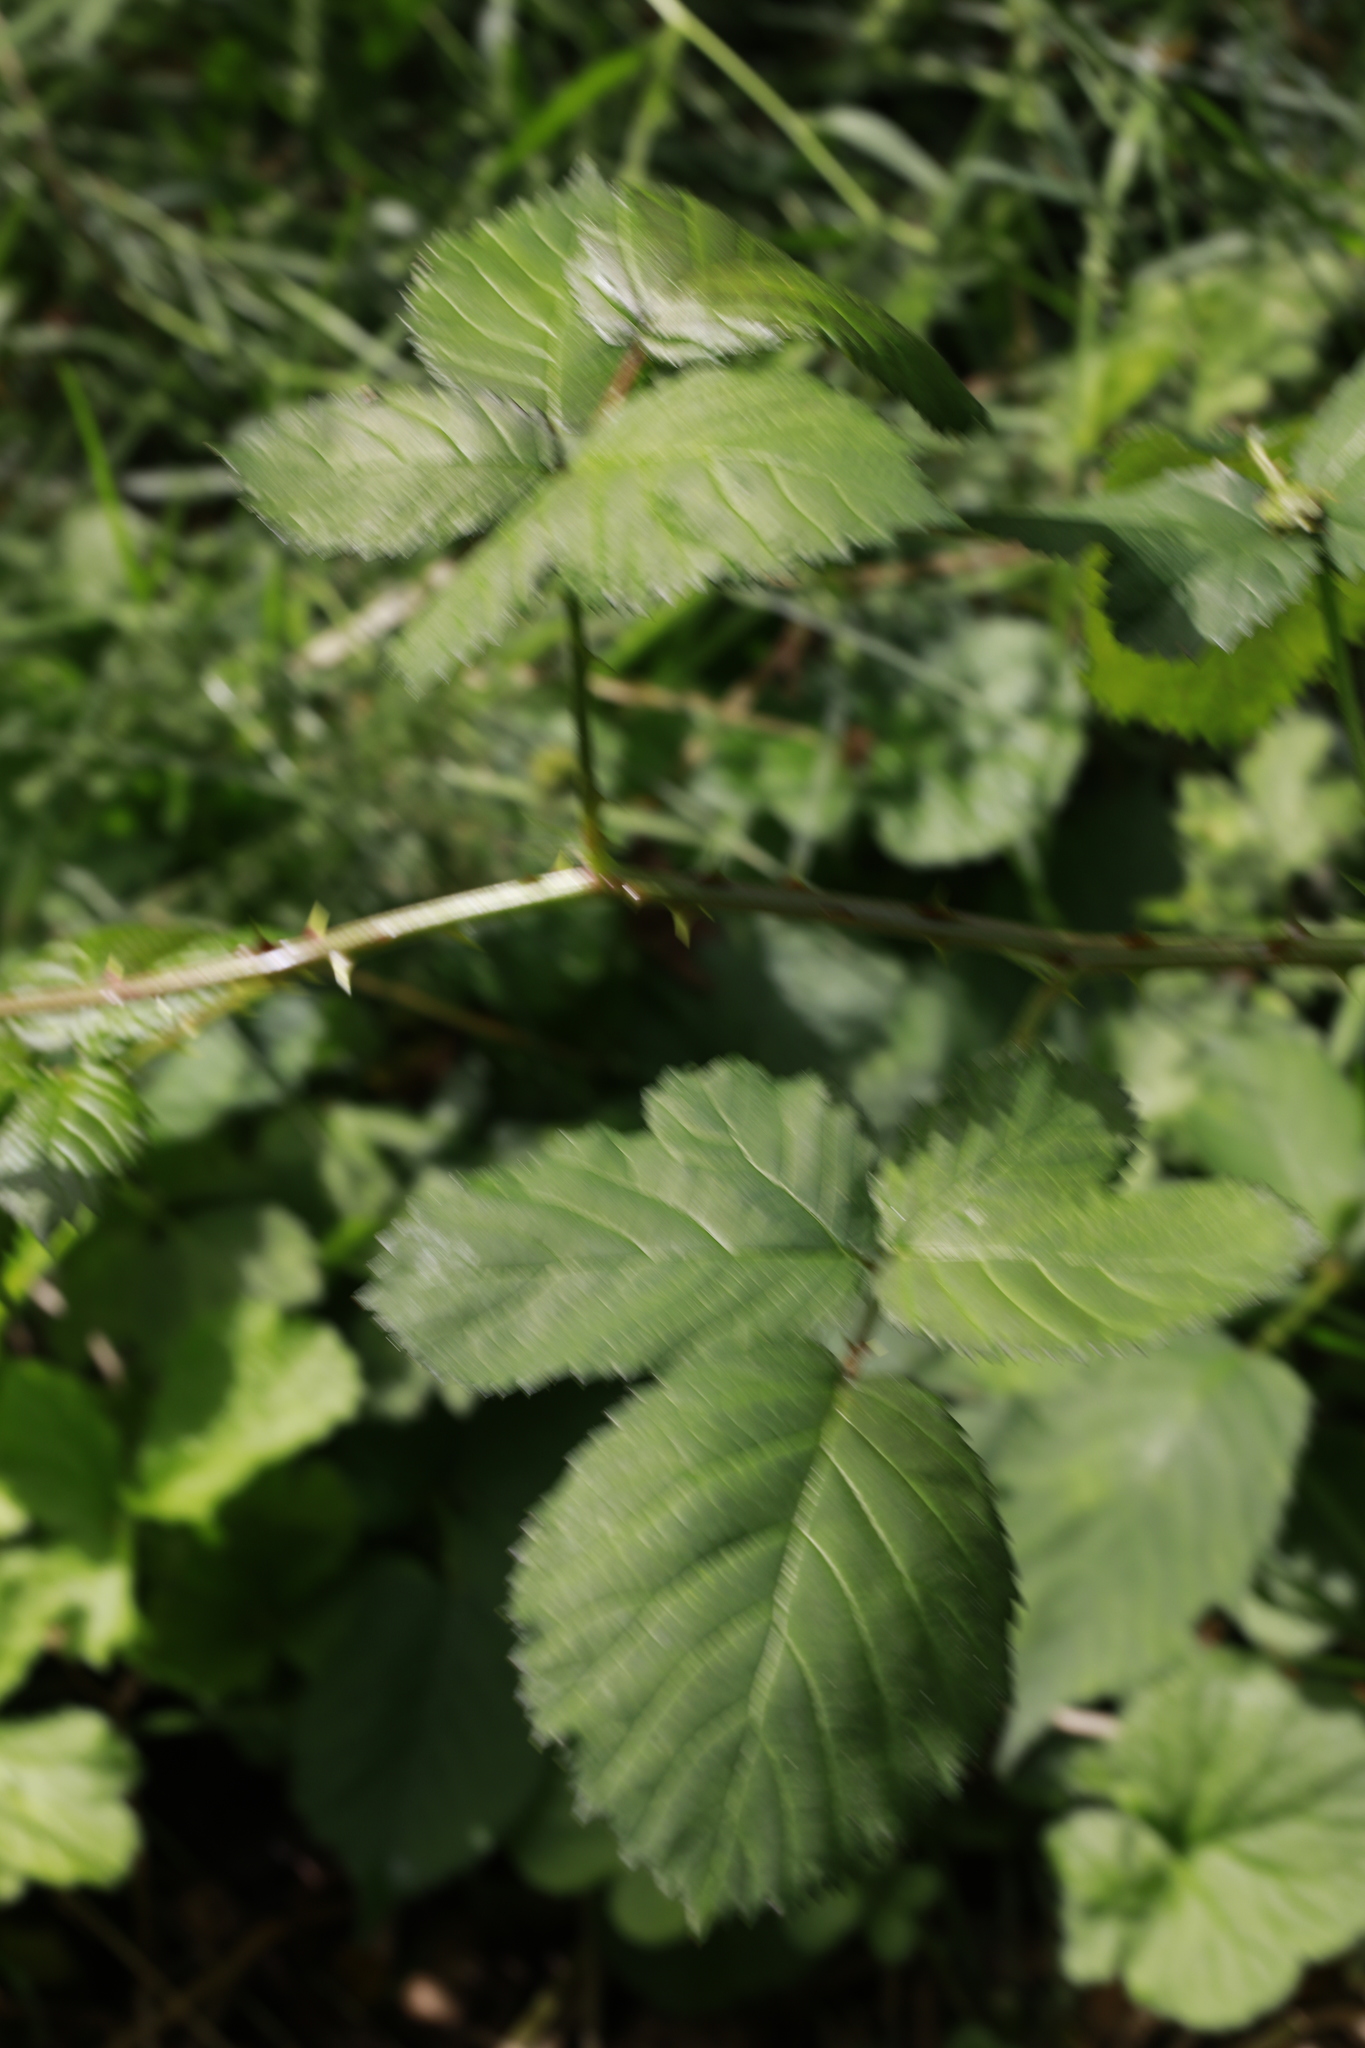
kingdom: Plantae
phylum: Tracheophyta
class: Magnoliopsida
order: Rosales
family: Rosaceae
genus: Rubus
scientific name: Rubus armeniacus
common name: Himalayan blackberry
